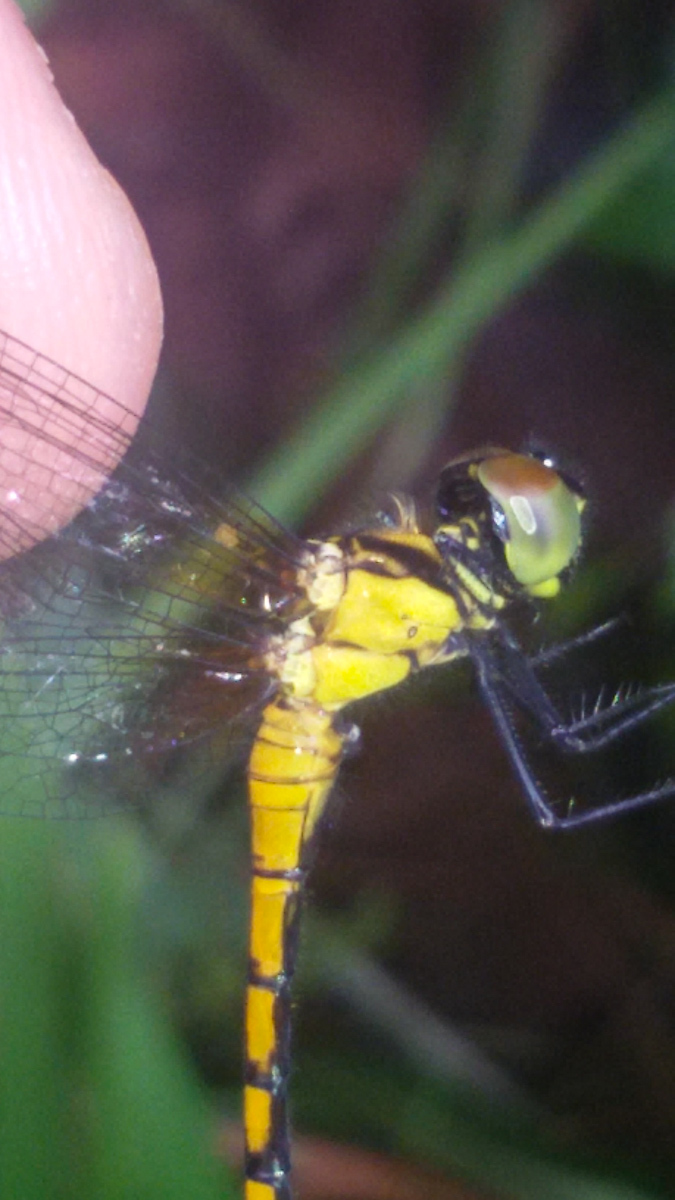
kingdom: Animalia
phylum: Arthropoda
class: Insecta
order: Odonata
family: Libellulidae
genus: Amphithemis
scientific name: Amphithemis curvistyla
